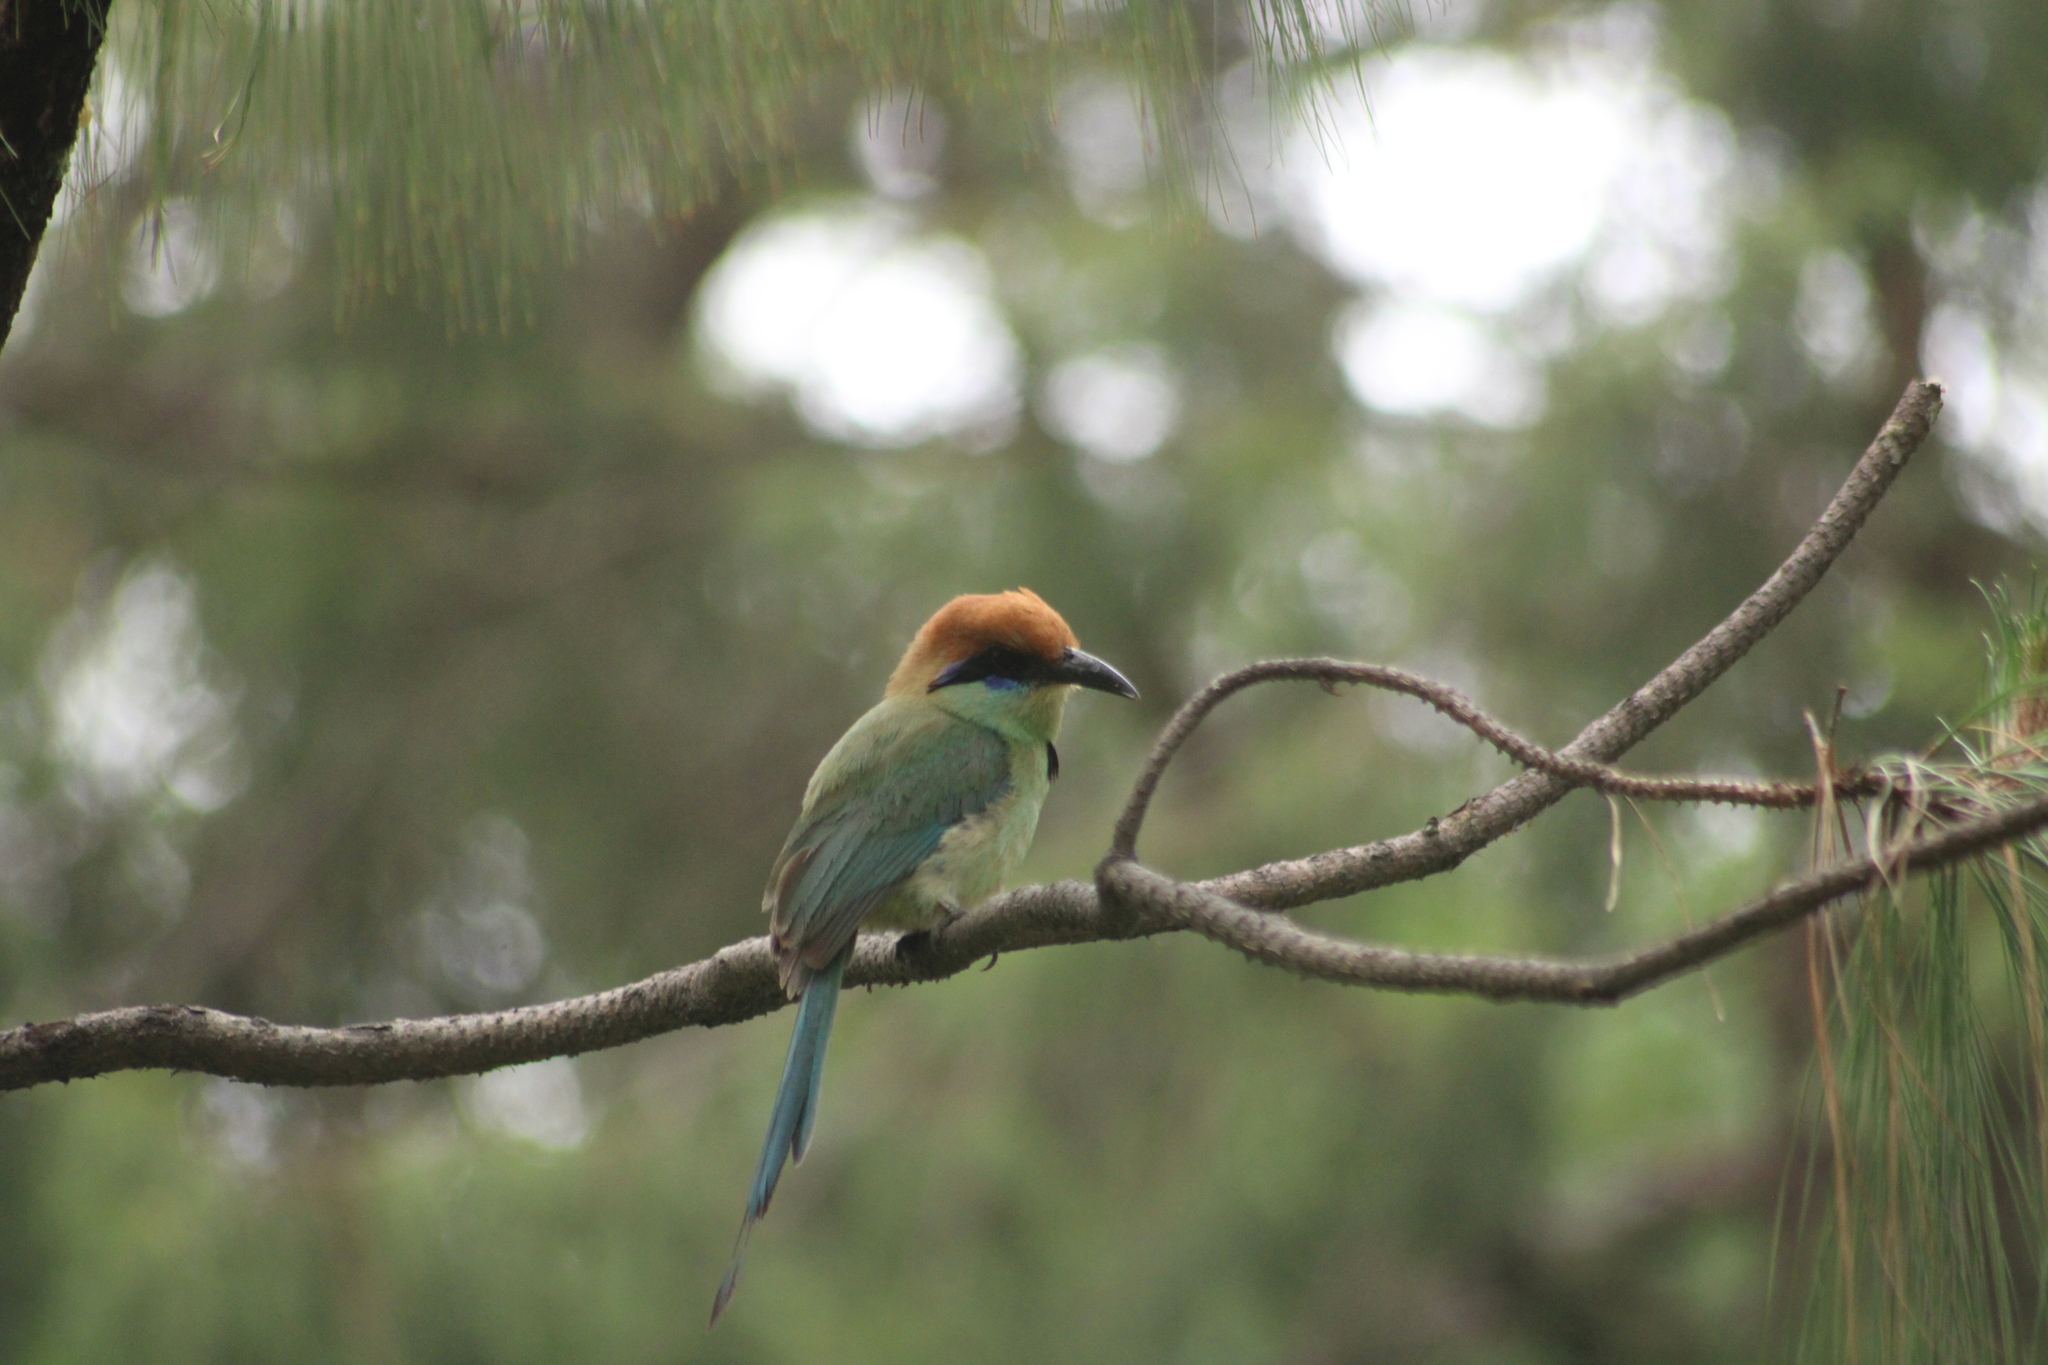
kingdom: Animalia
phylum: Chordata
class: Aves
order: Coraciiformes
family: Momotidae
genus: Momotus
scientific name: Momotus mexicanus
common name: Russet-crowned motmot
